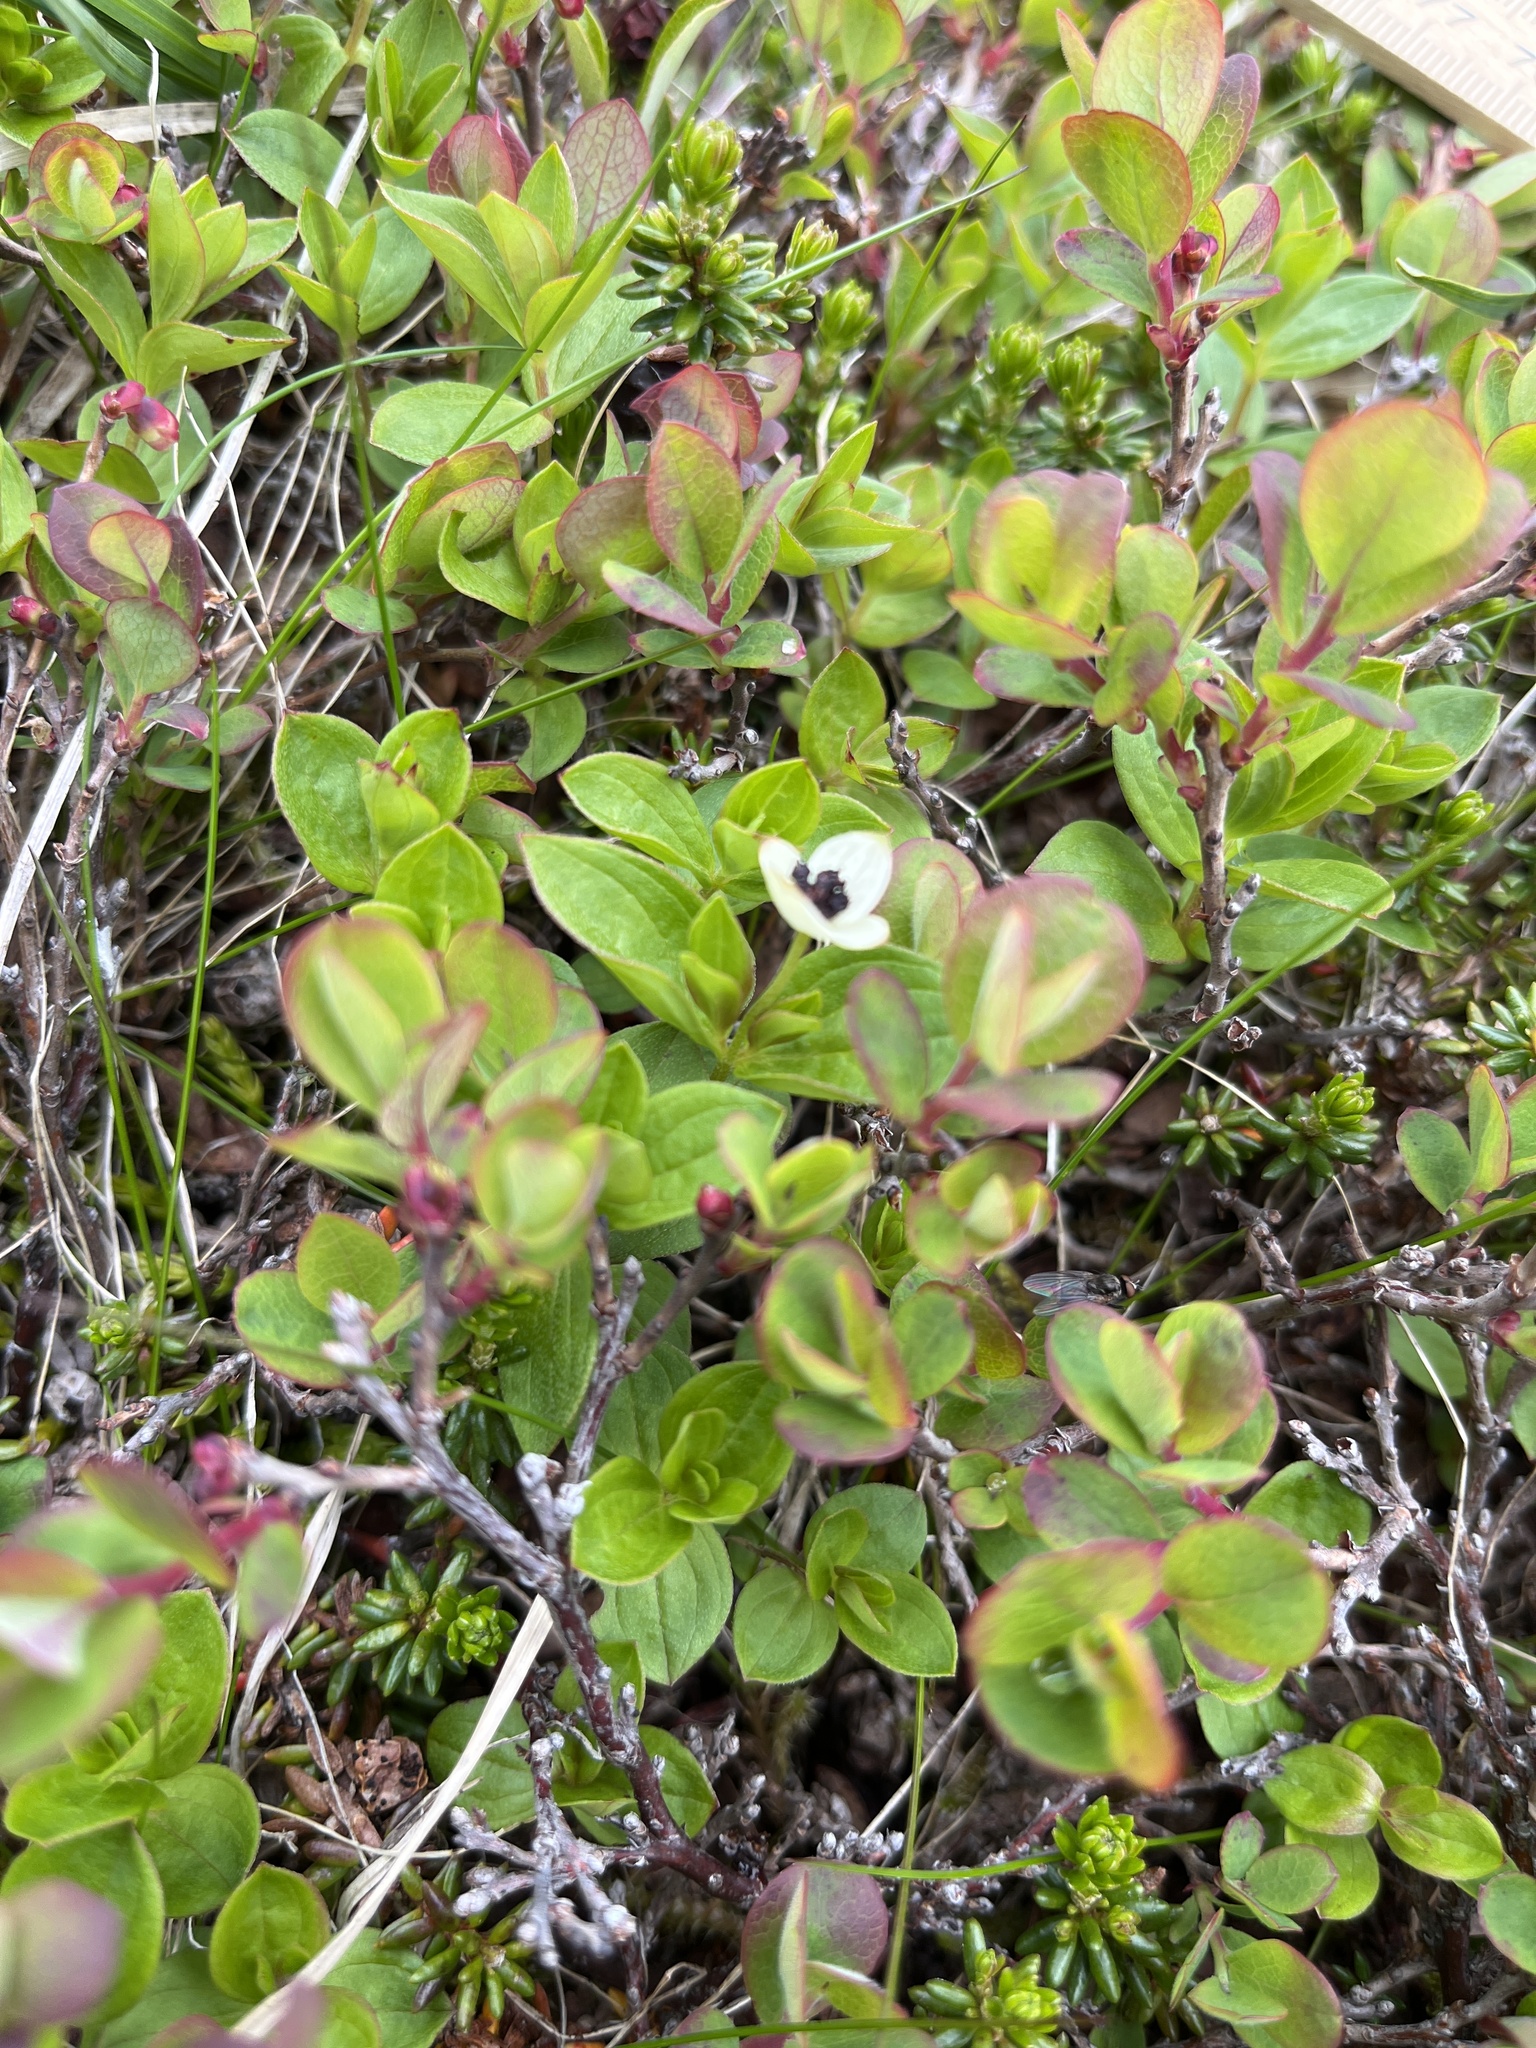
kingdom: Plantae
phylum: Tracheophyta
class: Magnoliopsida
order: Cornales
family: Cornaceae
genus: Cornus
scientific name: Cornus suecica
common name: Dwarf cornel
